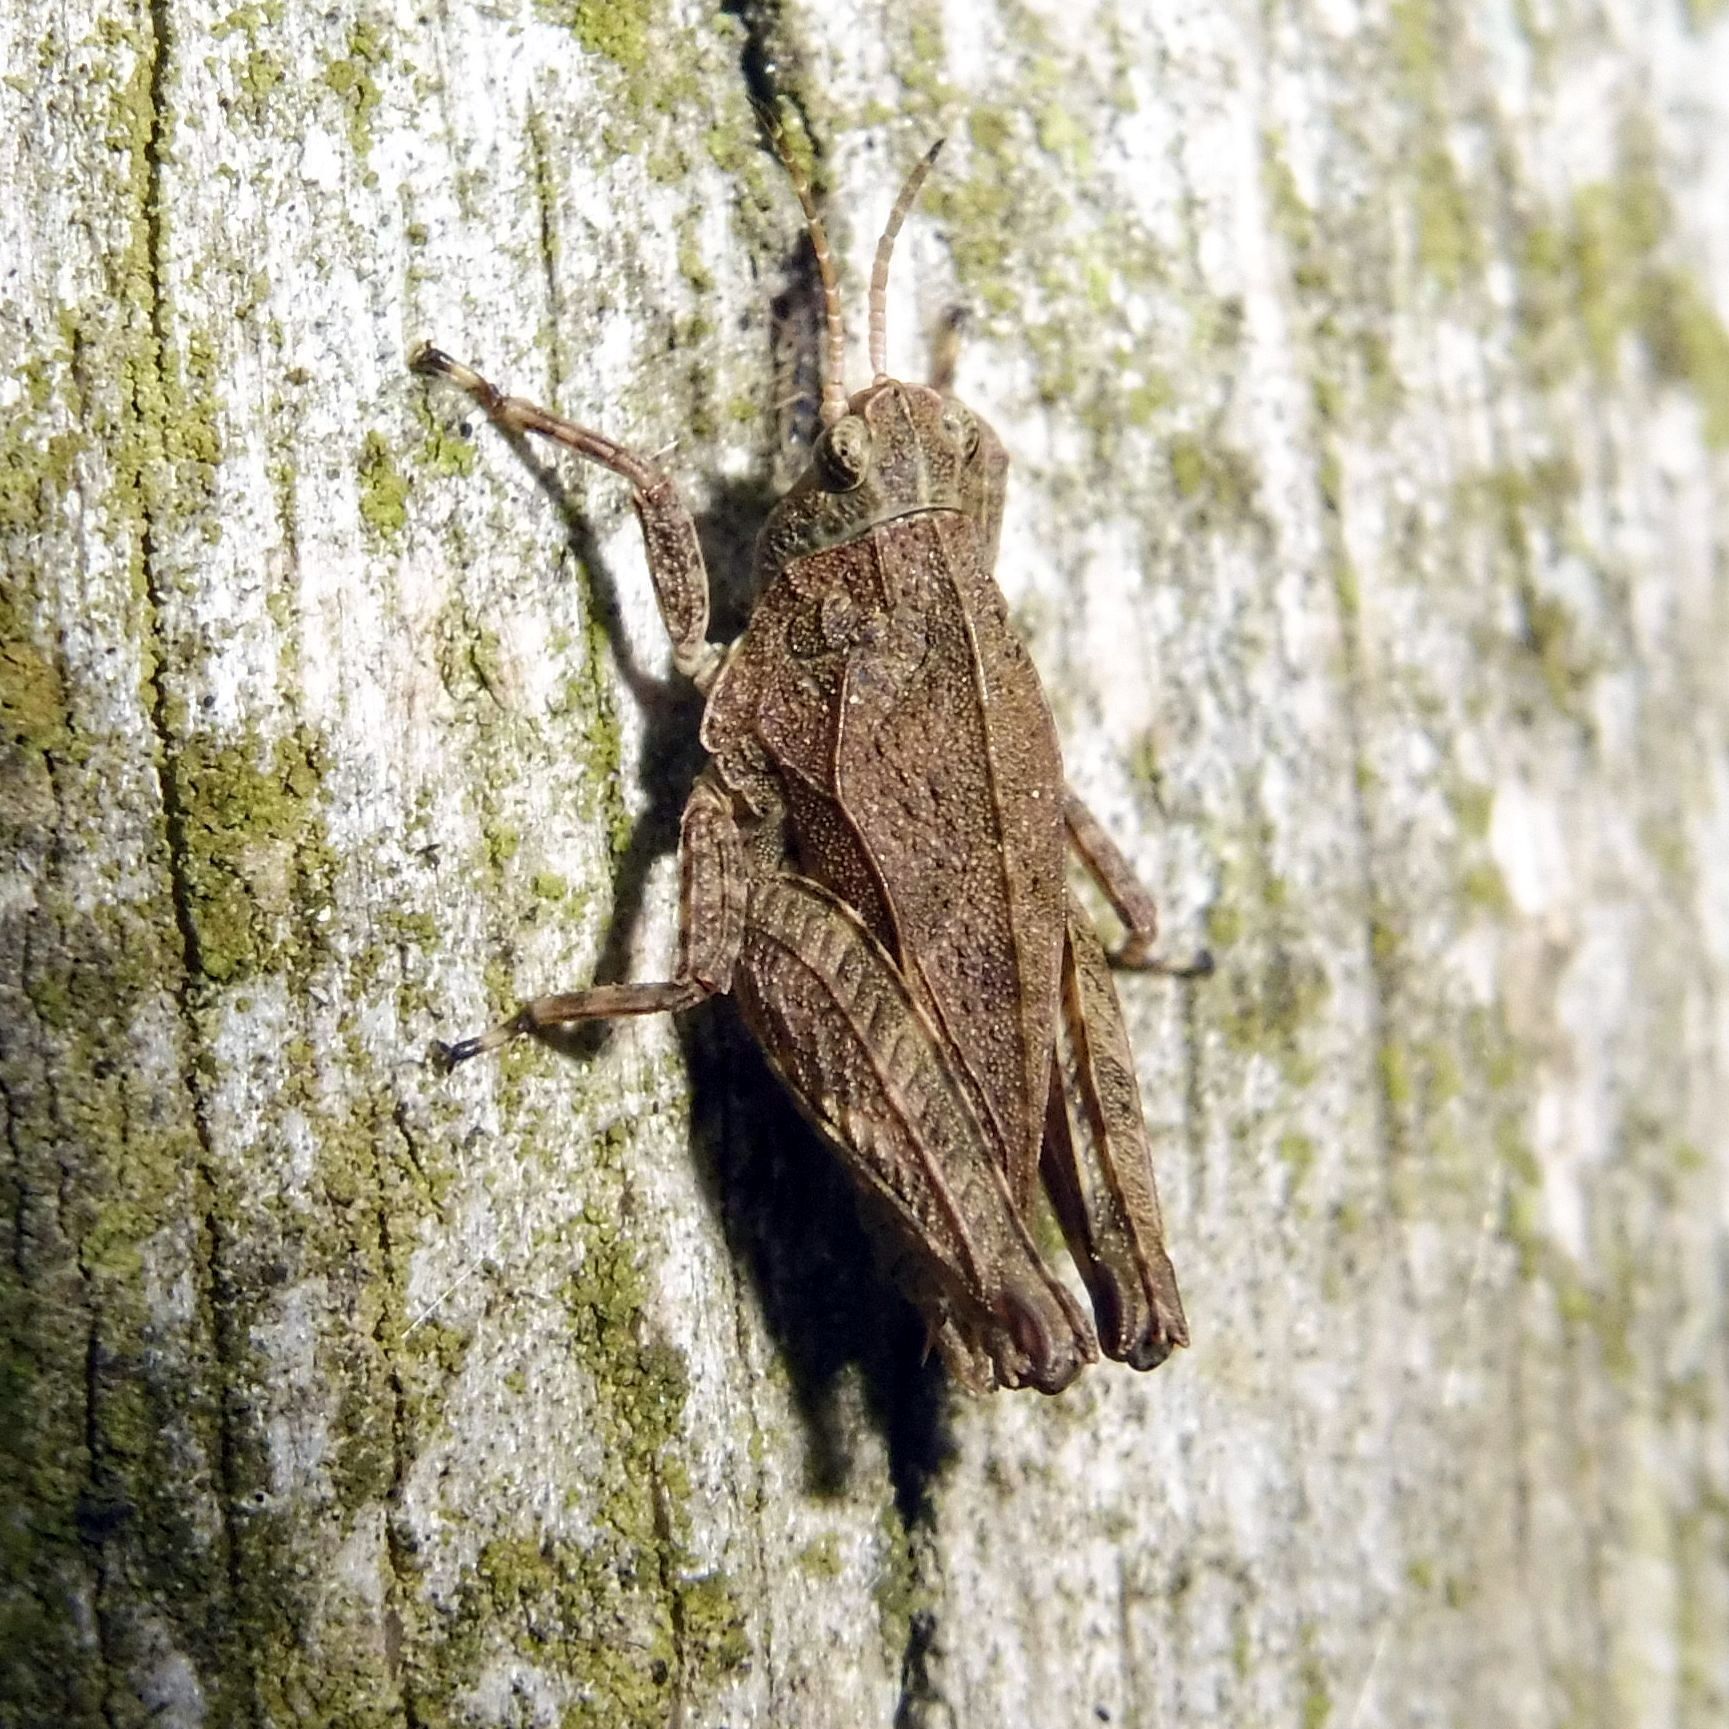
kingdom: Animalia
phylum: Arthropoda
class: Insecta
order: Orthoptera
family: Tetrigidae
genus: Tetrix
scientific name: Tetrix undulata
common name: Common groundhopper
